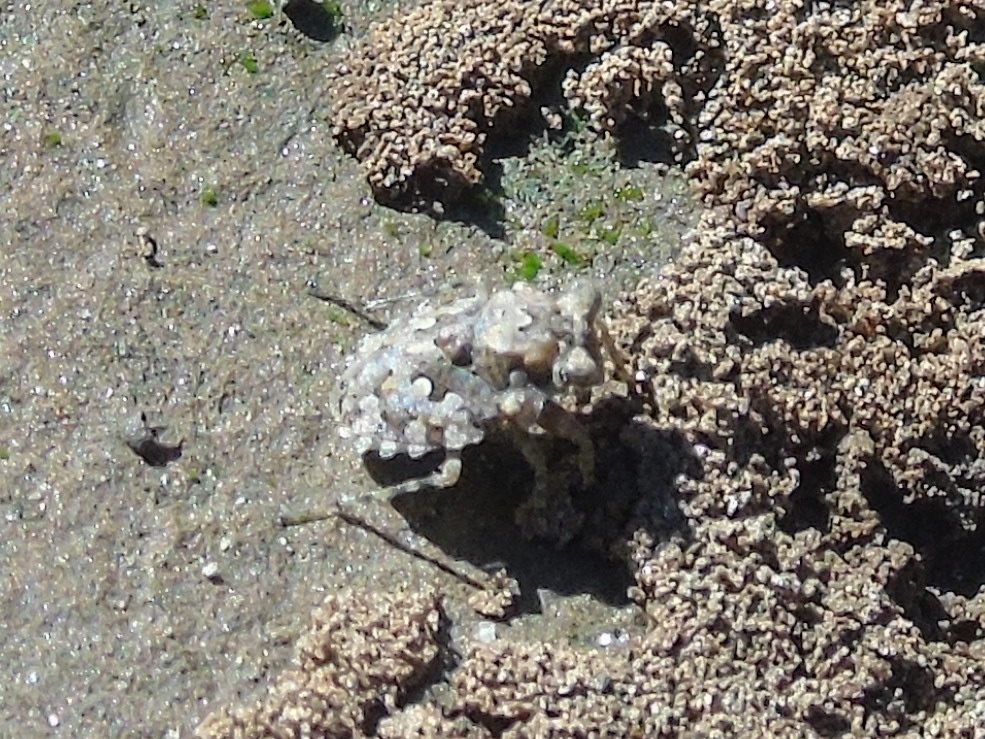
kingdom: Animalia
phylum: Arthropoda
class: Insecta
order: Hemiptera
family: Gelastocoridae
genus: Gelastocoris
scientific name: Gelastocoris
